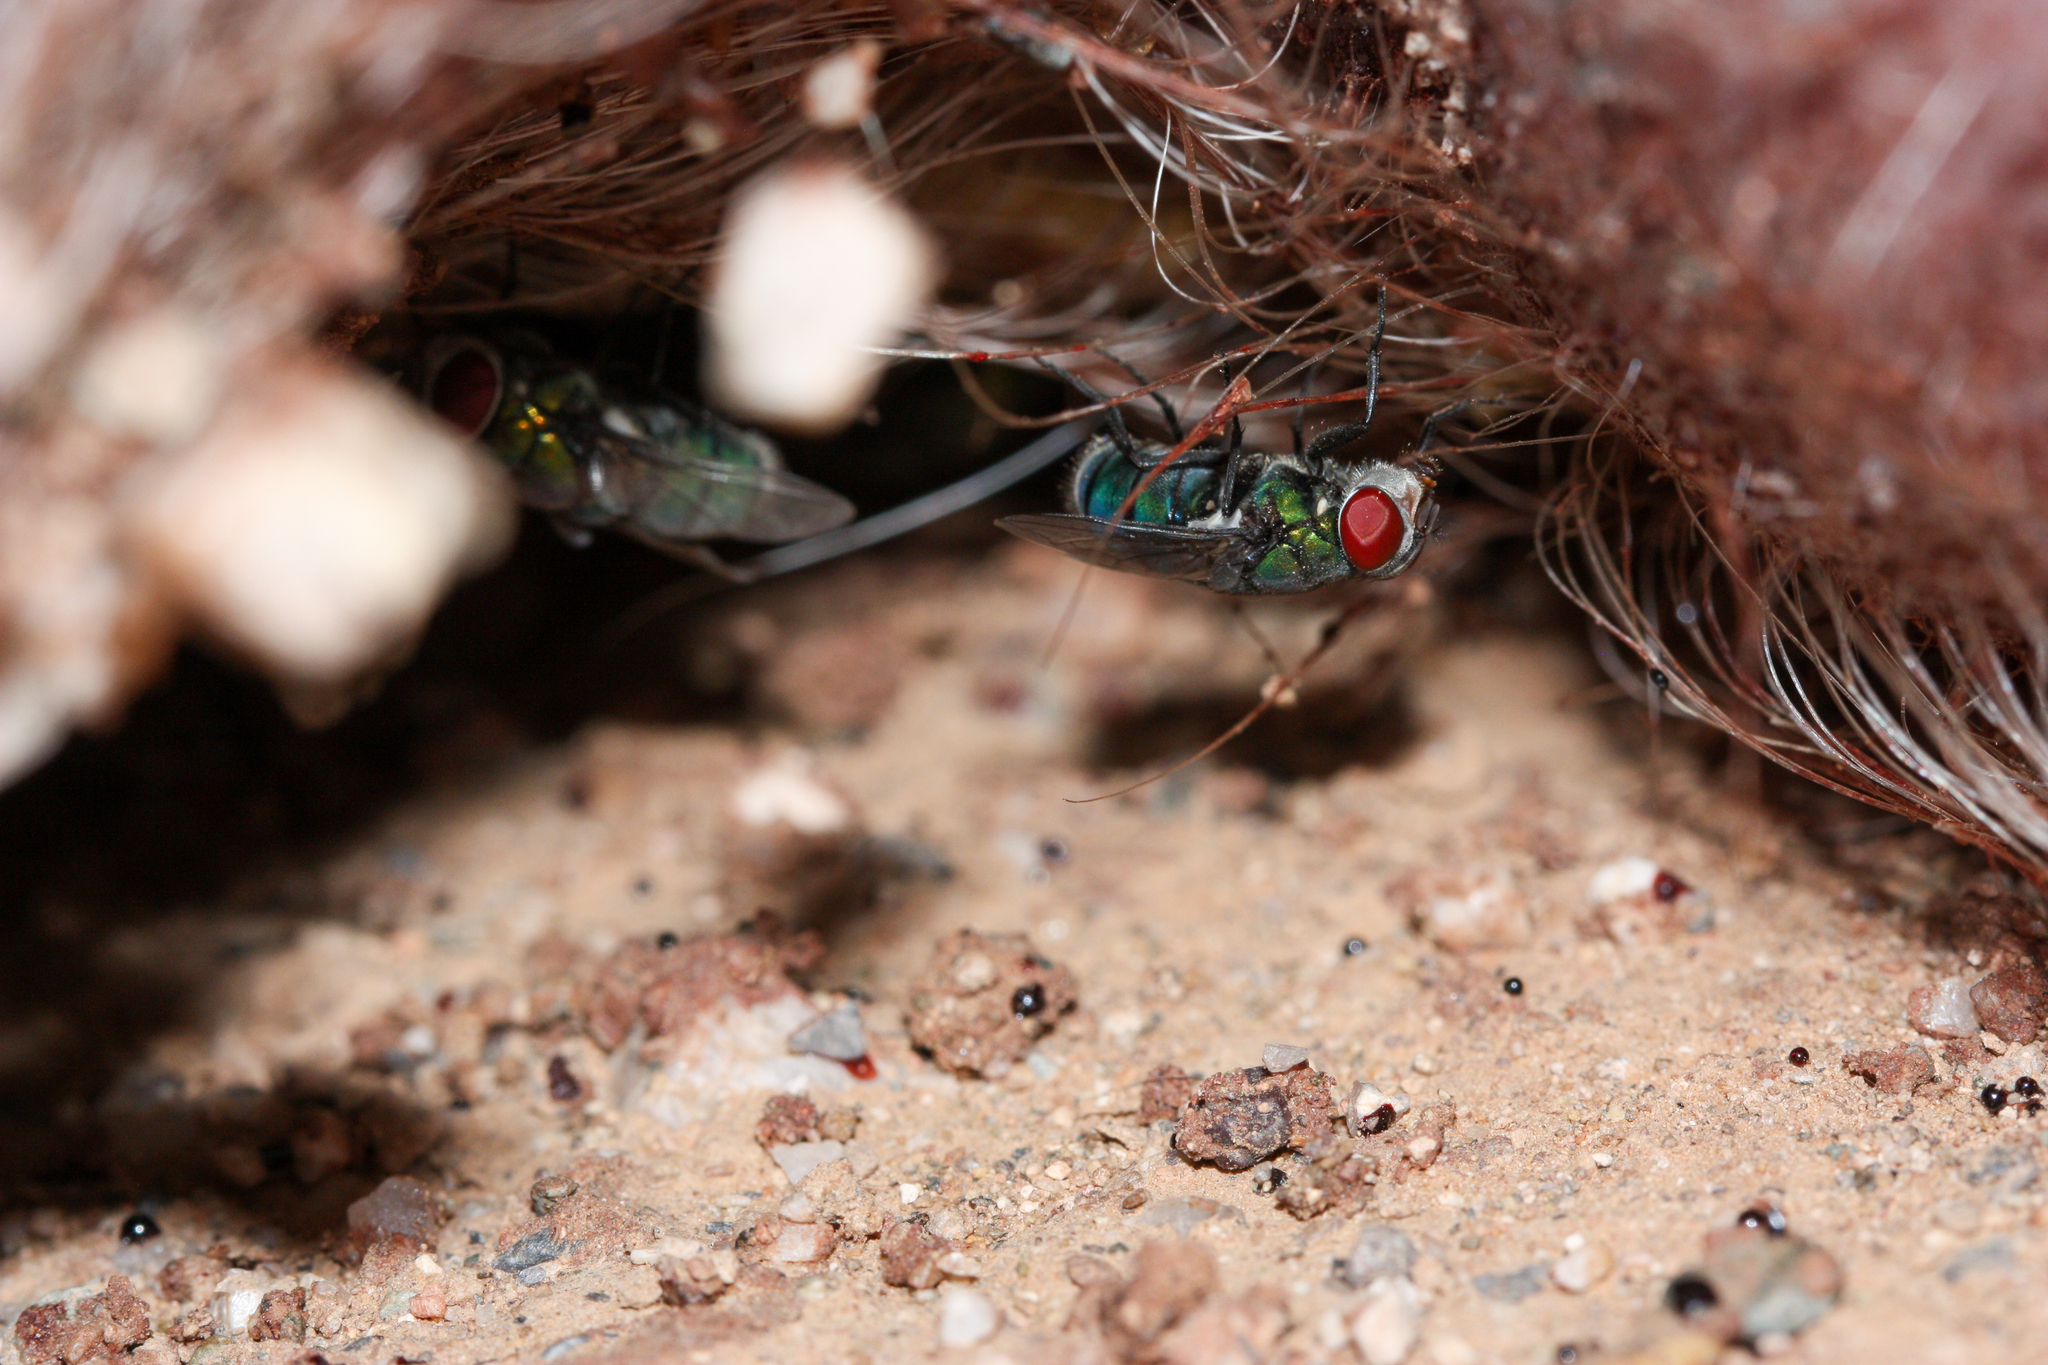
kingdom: Animalia
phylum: Arthropoda
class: Insecta
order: Diptera
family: Calliphoridae
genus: Chrysomya
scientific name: Chrysomya rufifacies
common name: Blow fly
